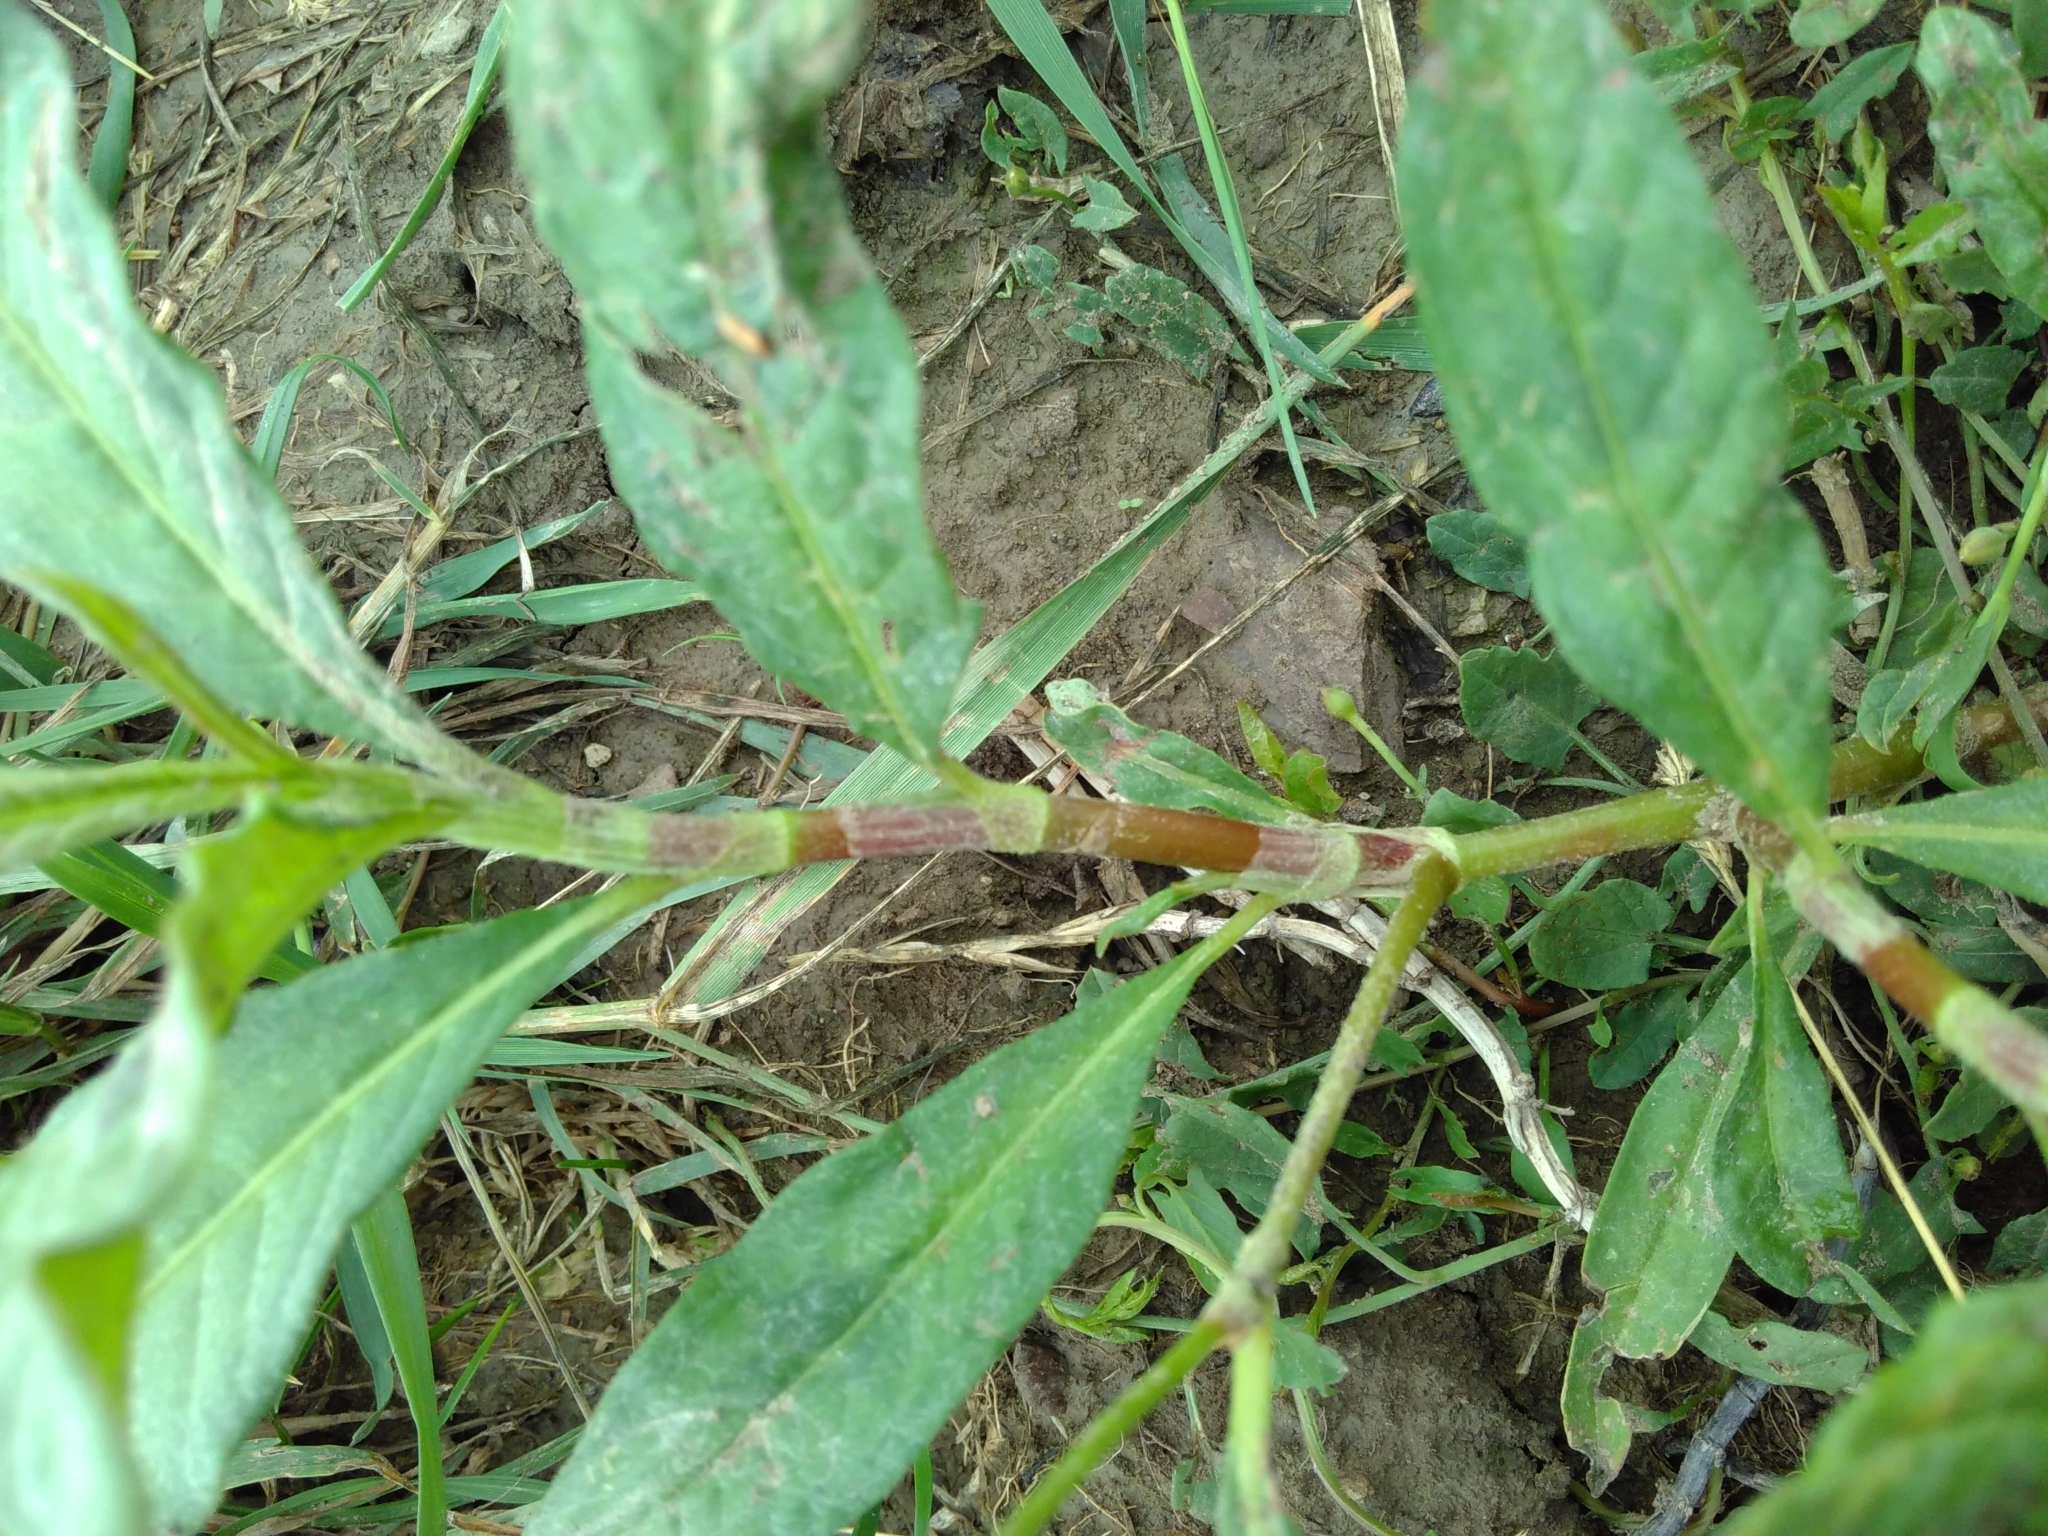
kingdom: Plantae
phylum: Tracheophyta
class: Magnoliopsida
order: Caryophyllales
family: Polygonaceae
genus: Persicaria
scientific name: Persicaria lapathifolia
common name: Curlytop knotweed
